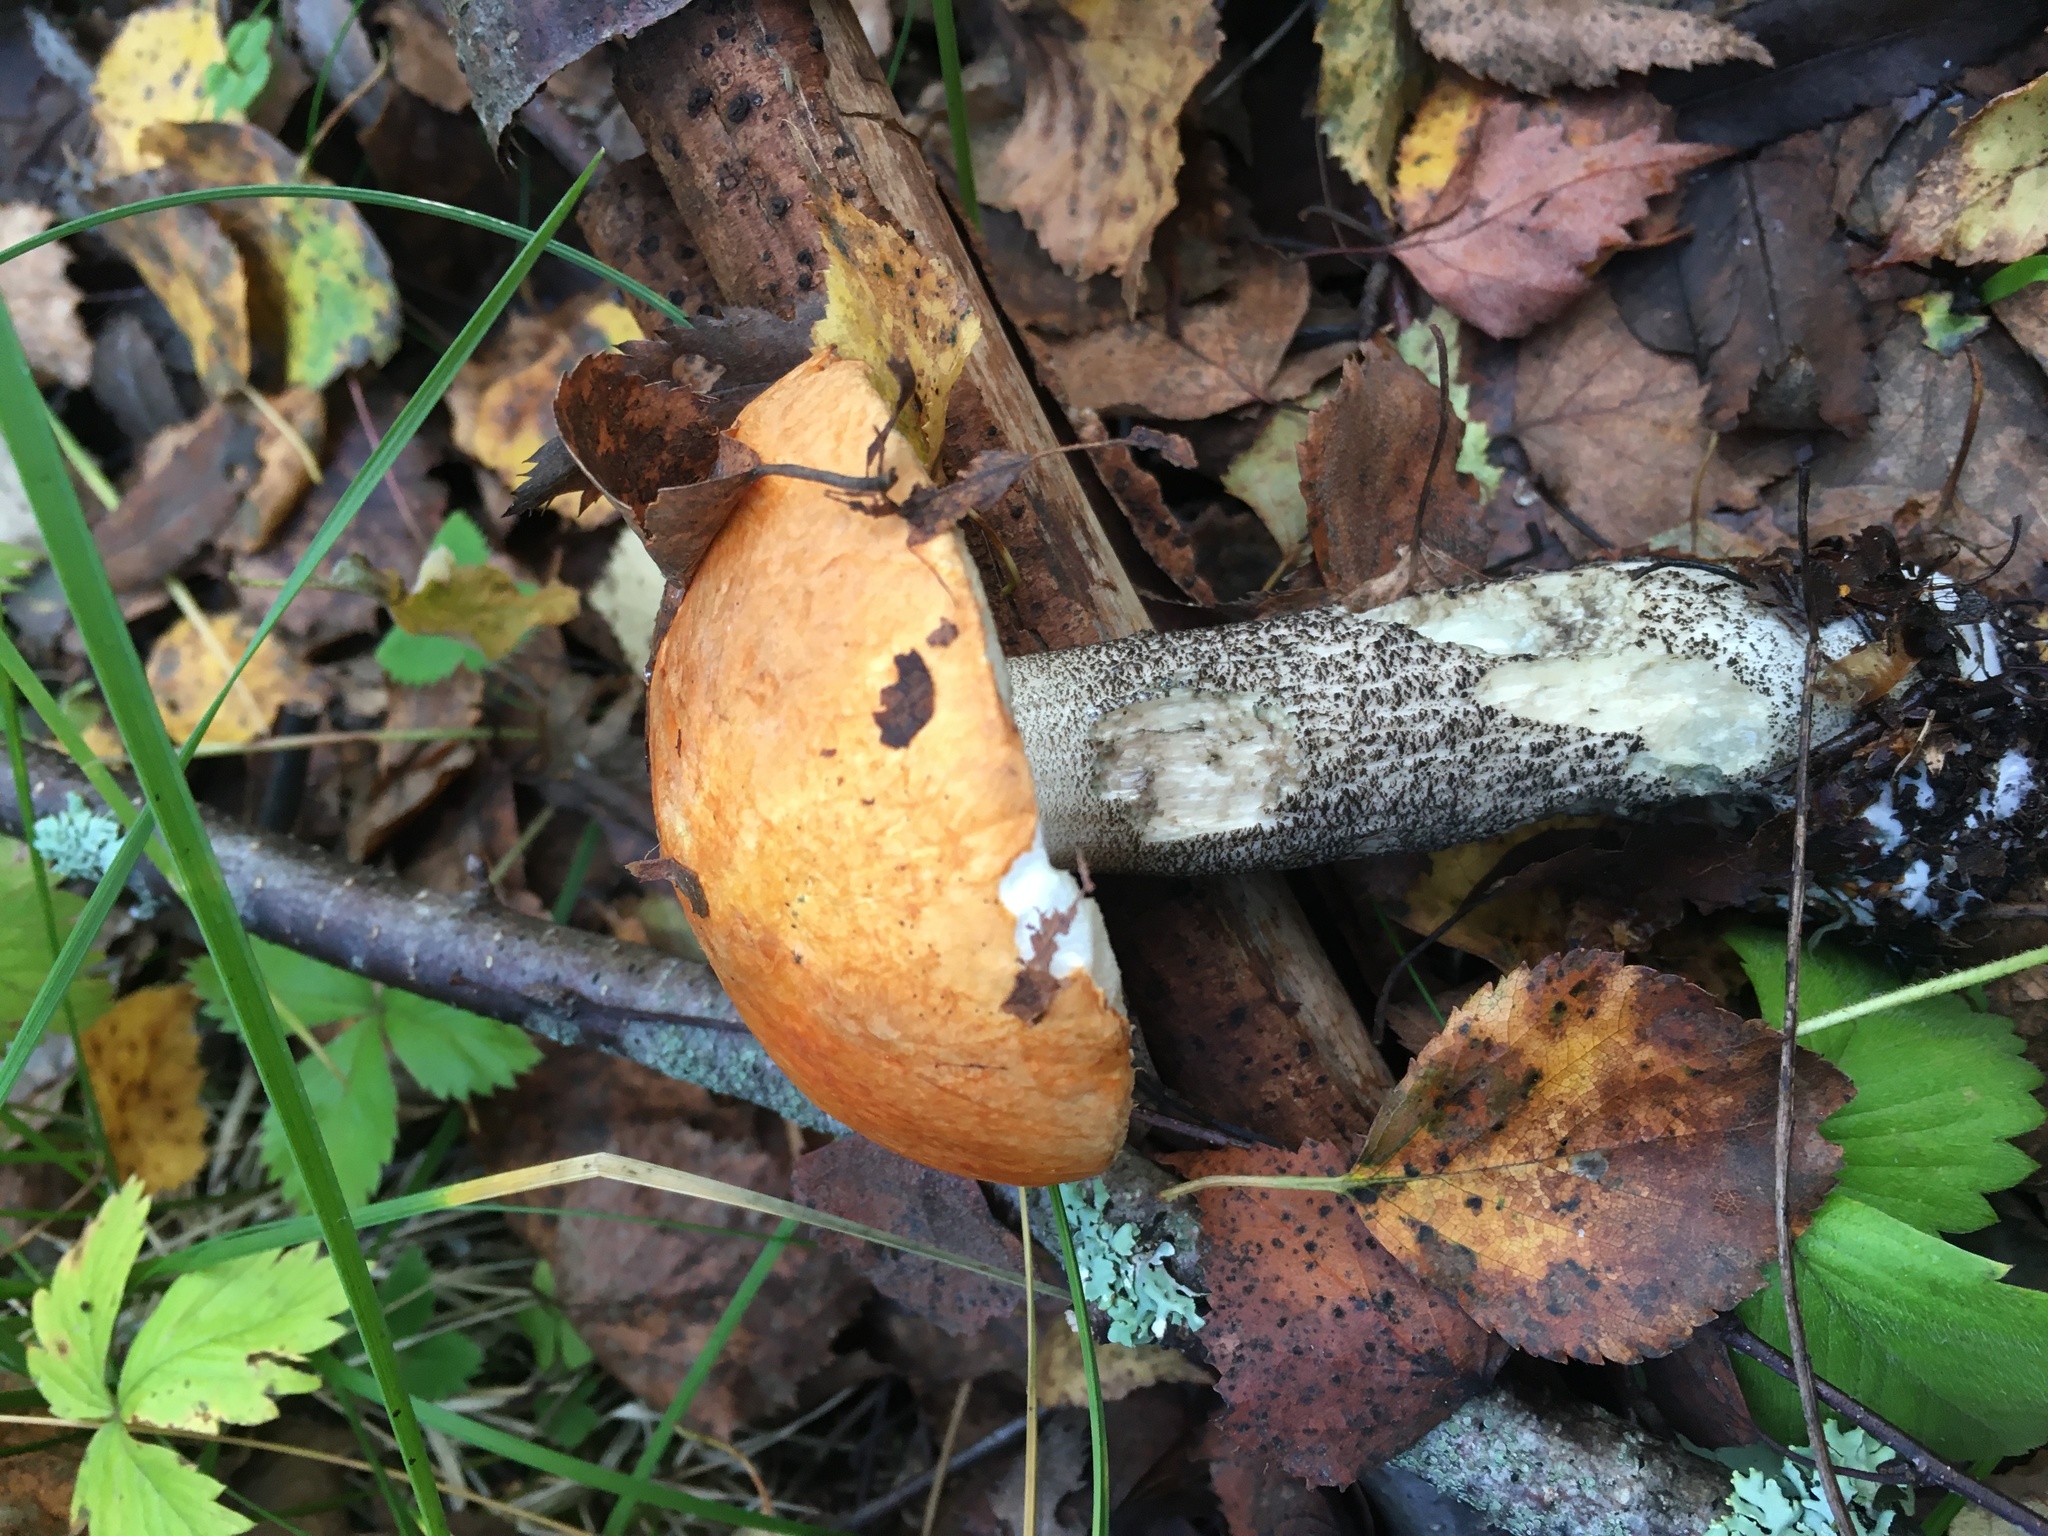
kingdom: Fungi
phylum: Basidiomycota
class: Agaricomycetes
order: Boletales
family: Boletaceae
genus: Leccinum
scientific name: Leccinum versipelle
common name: Orange birch bolete
